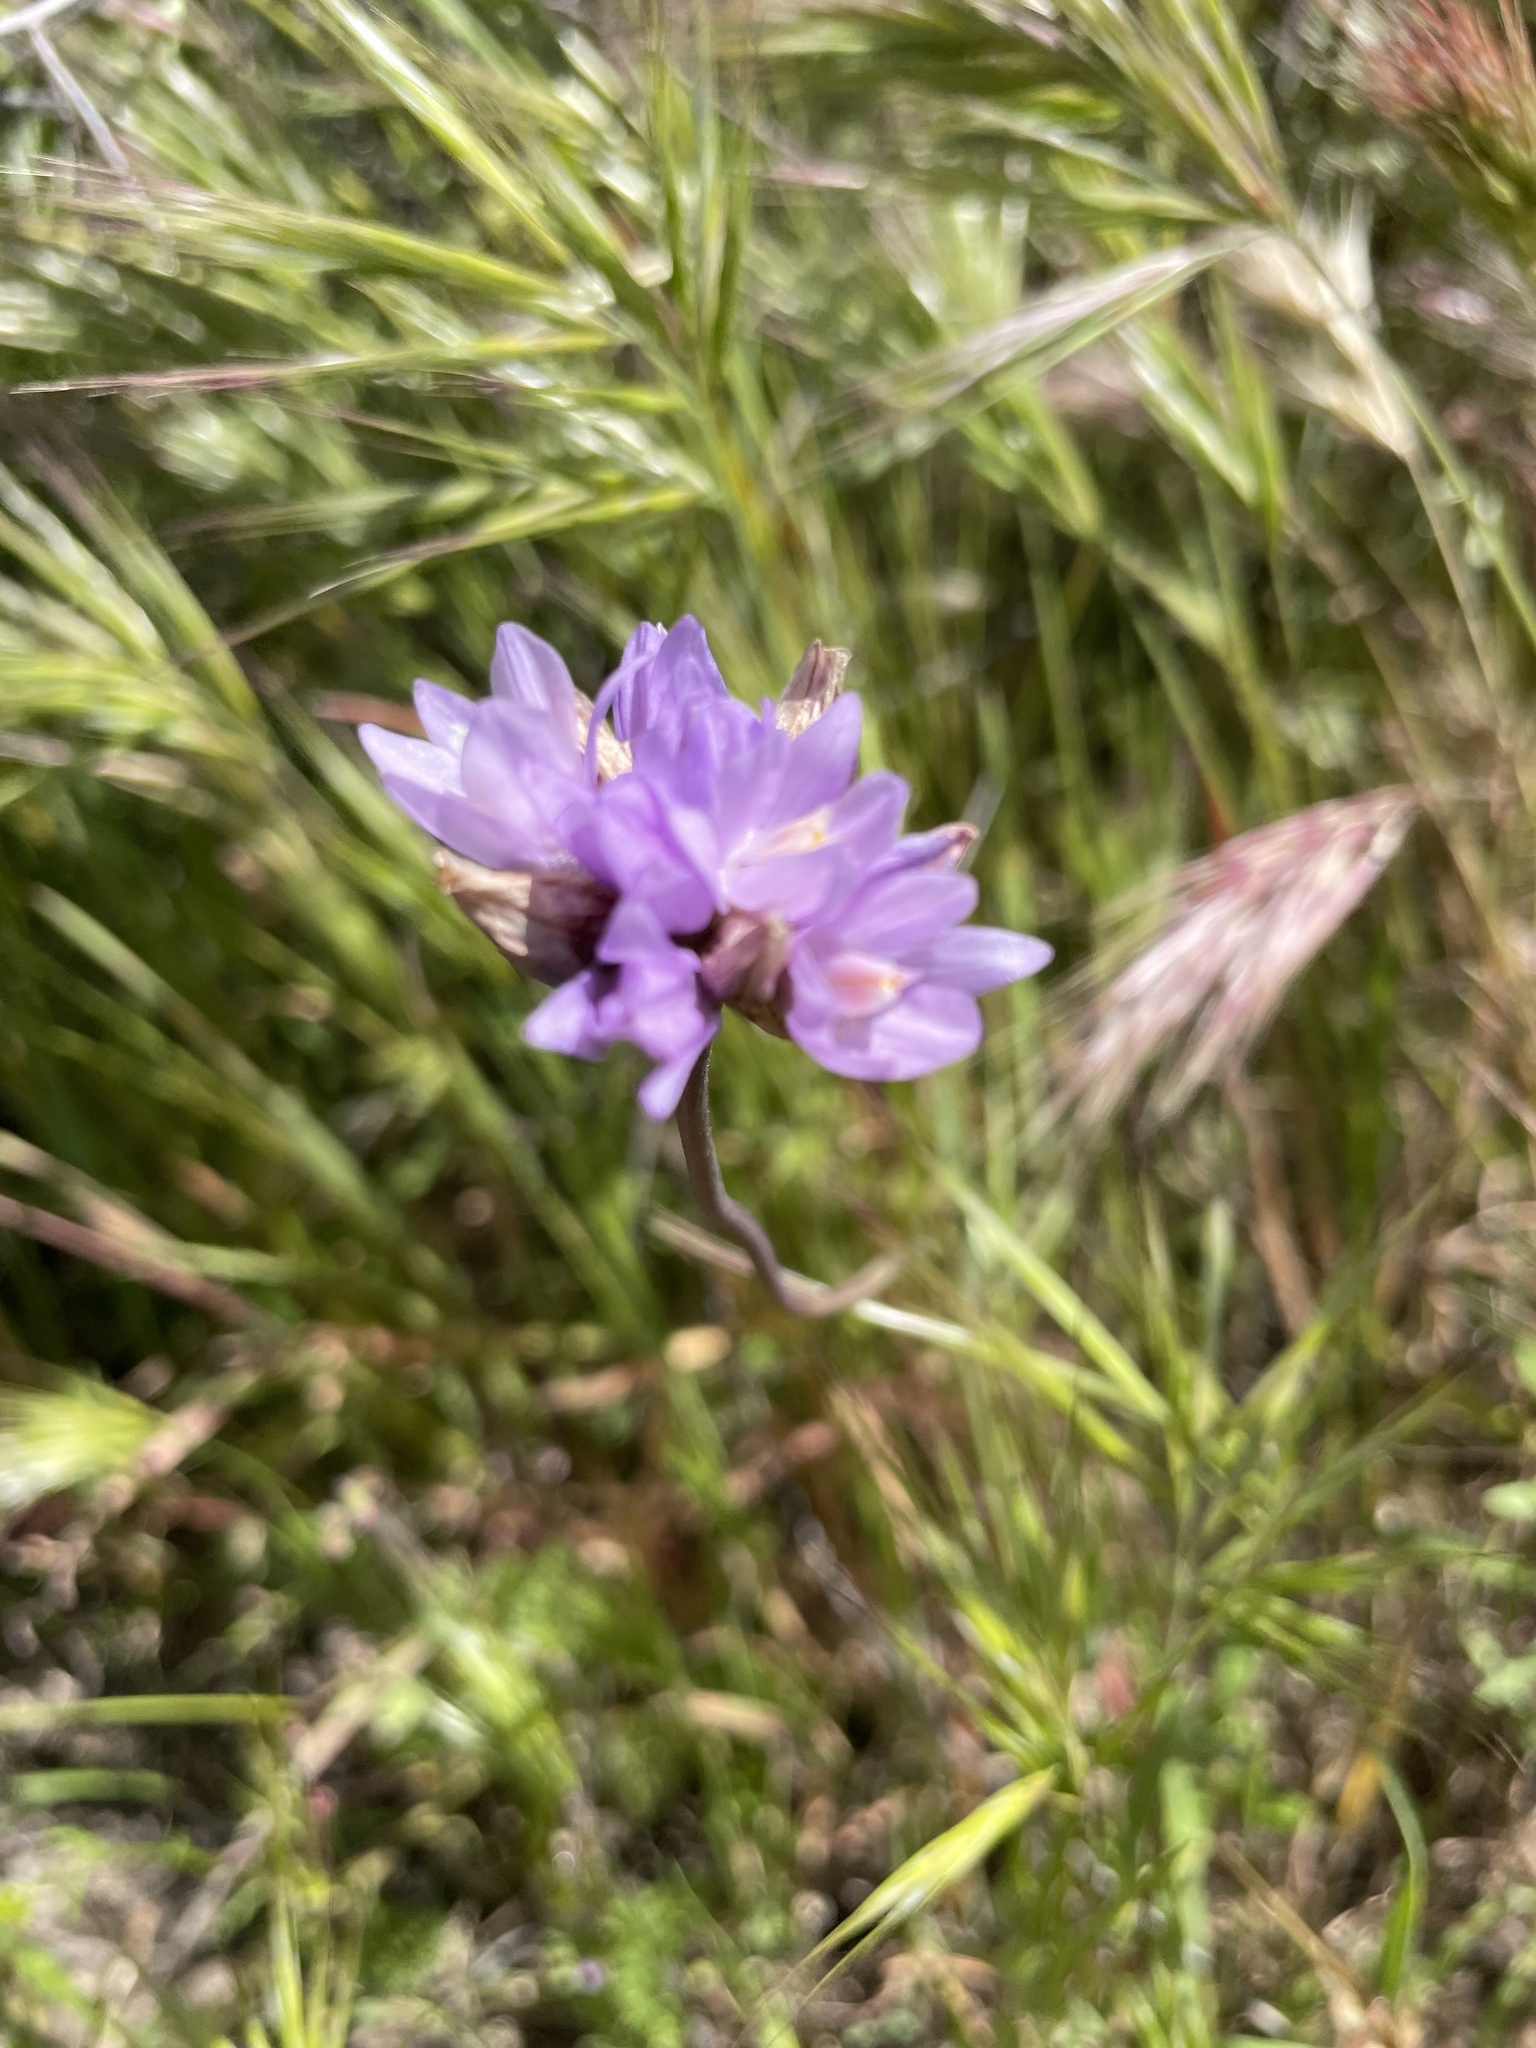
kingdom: Plantae
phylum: Tracheophyta
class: Liliopsida
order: Asparagales
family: Asparagaceae
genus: Dipterostemon
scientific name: Dipterostemon capitatus
